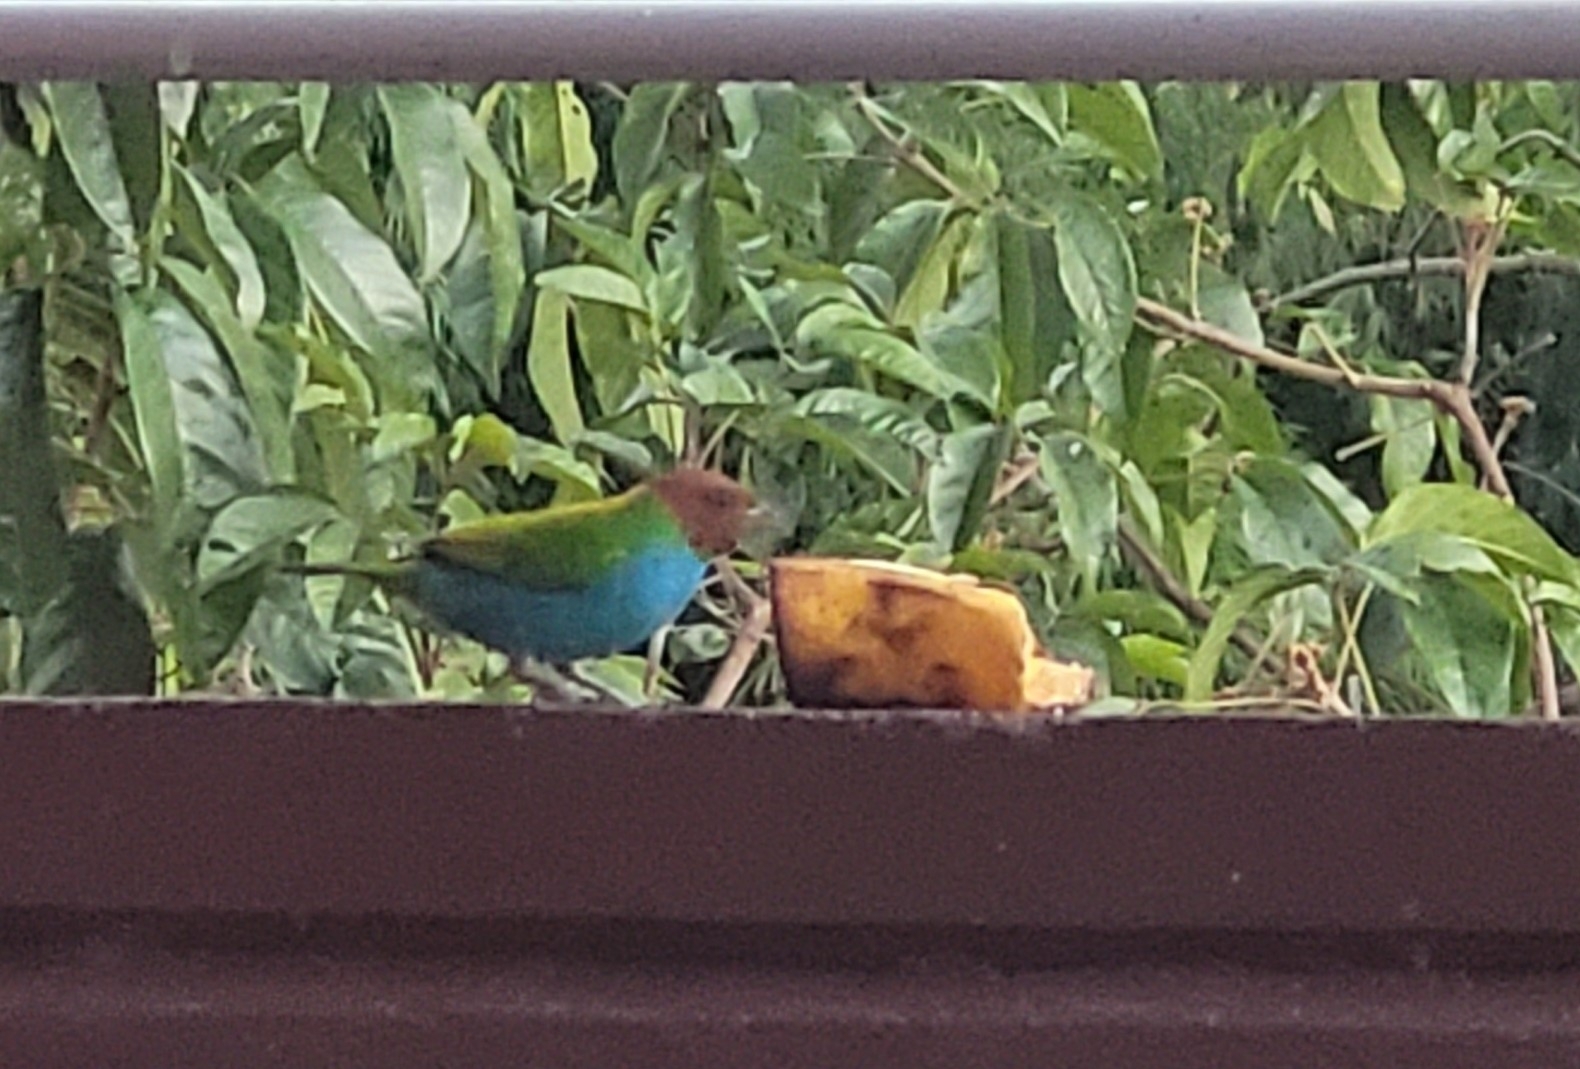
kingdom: Animalia
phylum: Chordata
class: Aves
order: Passeriformes
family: Thraupidae
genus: Tangara
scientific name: Tangara gyrola
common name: Bay-headed tanager
